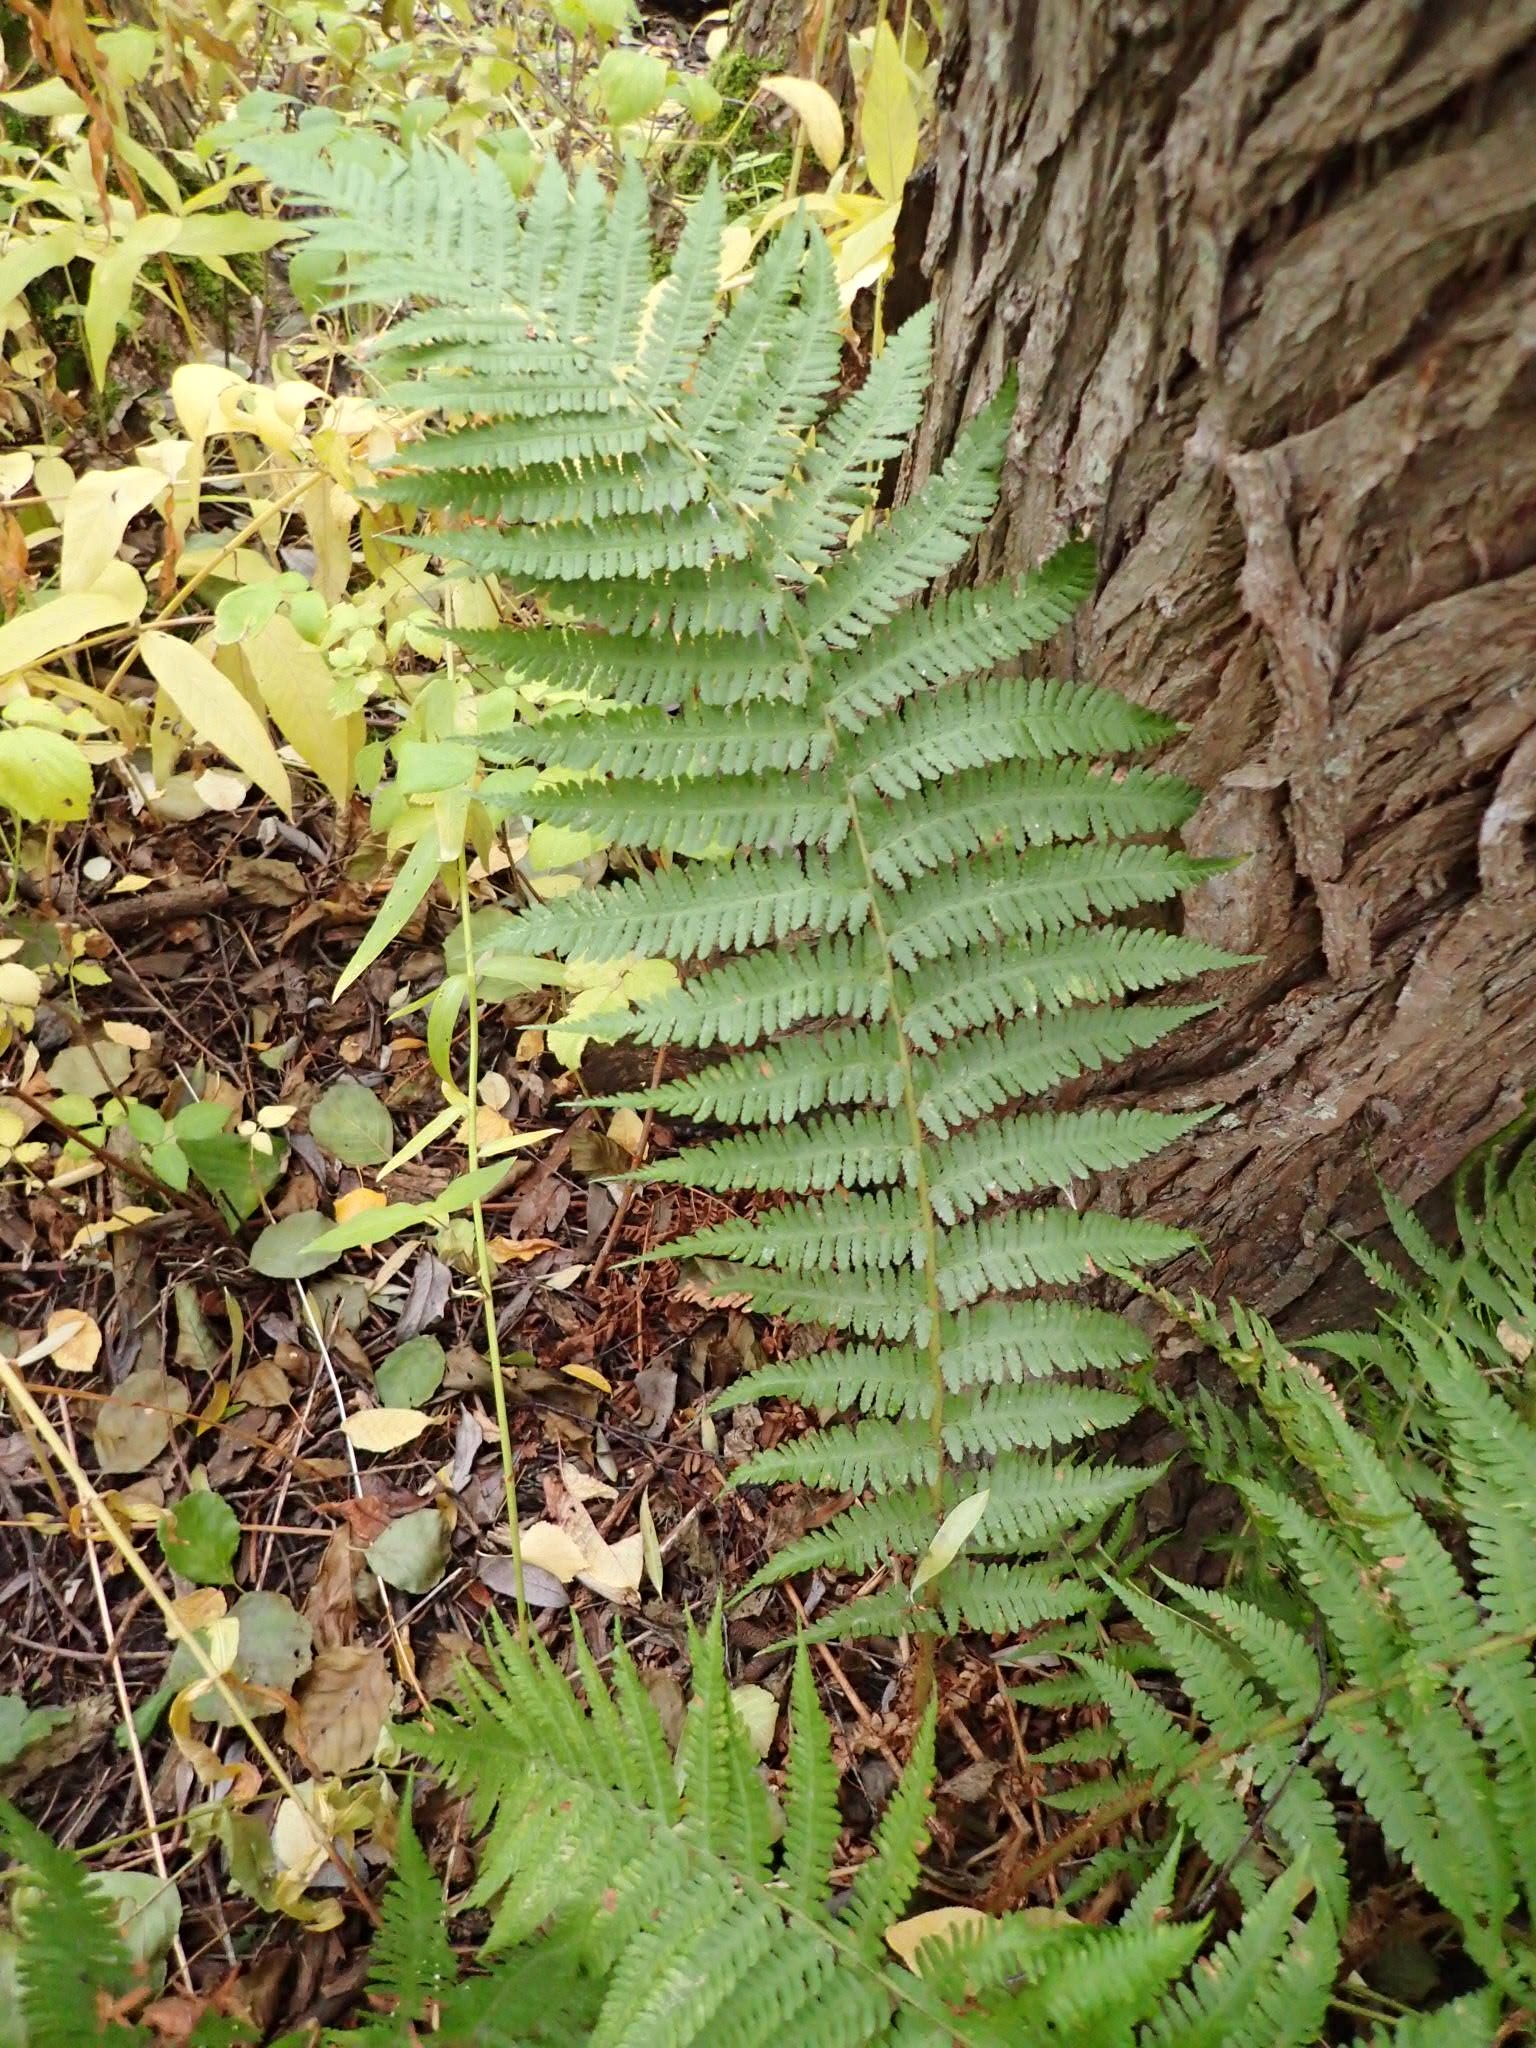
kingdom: Plantae
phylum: Tracheophyta
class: Polypodiopsida
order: Polypodiales
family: Dryopteridaceae
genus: Dryopteris
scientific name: Dryopteris filix-mas
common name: Male fern
